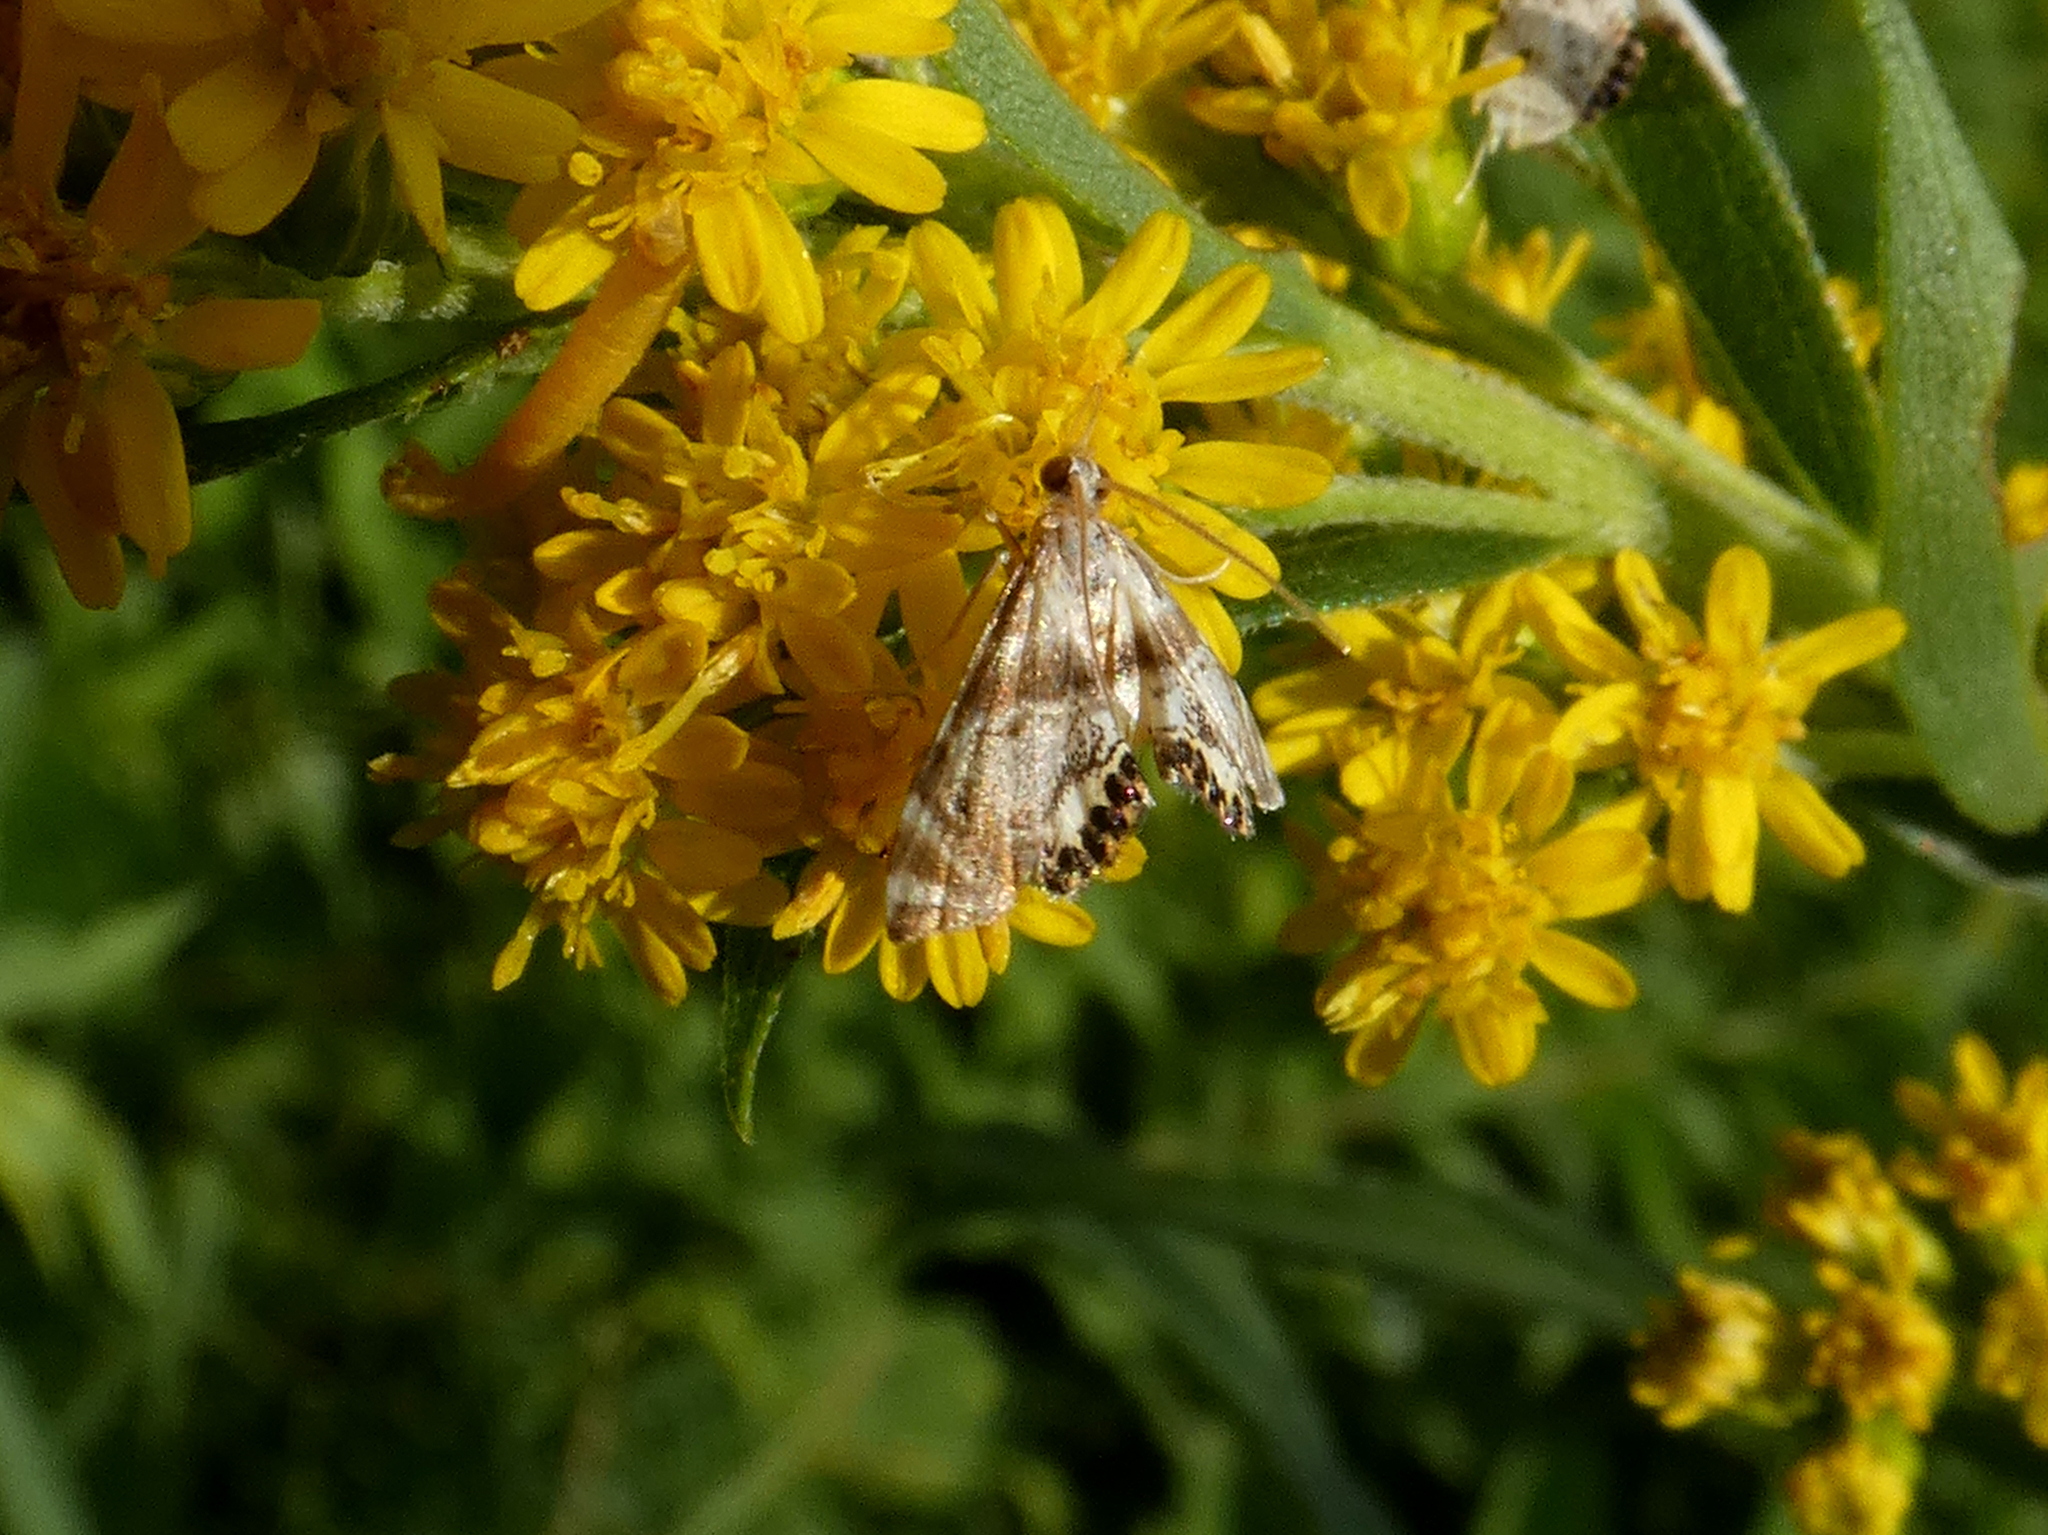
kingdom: Animalia
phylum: Arthropoda
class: Insecta
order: Lepidoptera
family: Crambidae
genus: Petrophila
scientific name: Petrophila fulicalis
